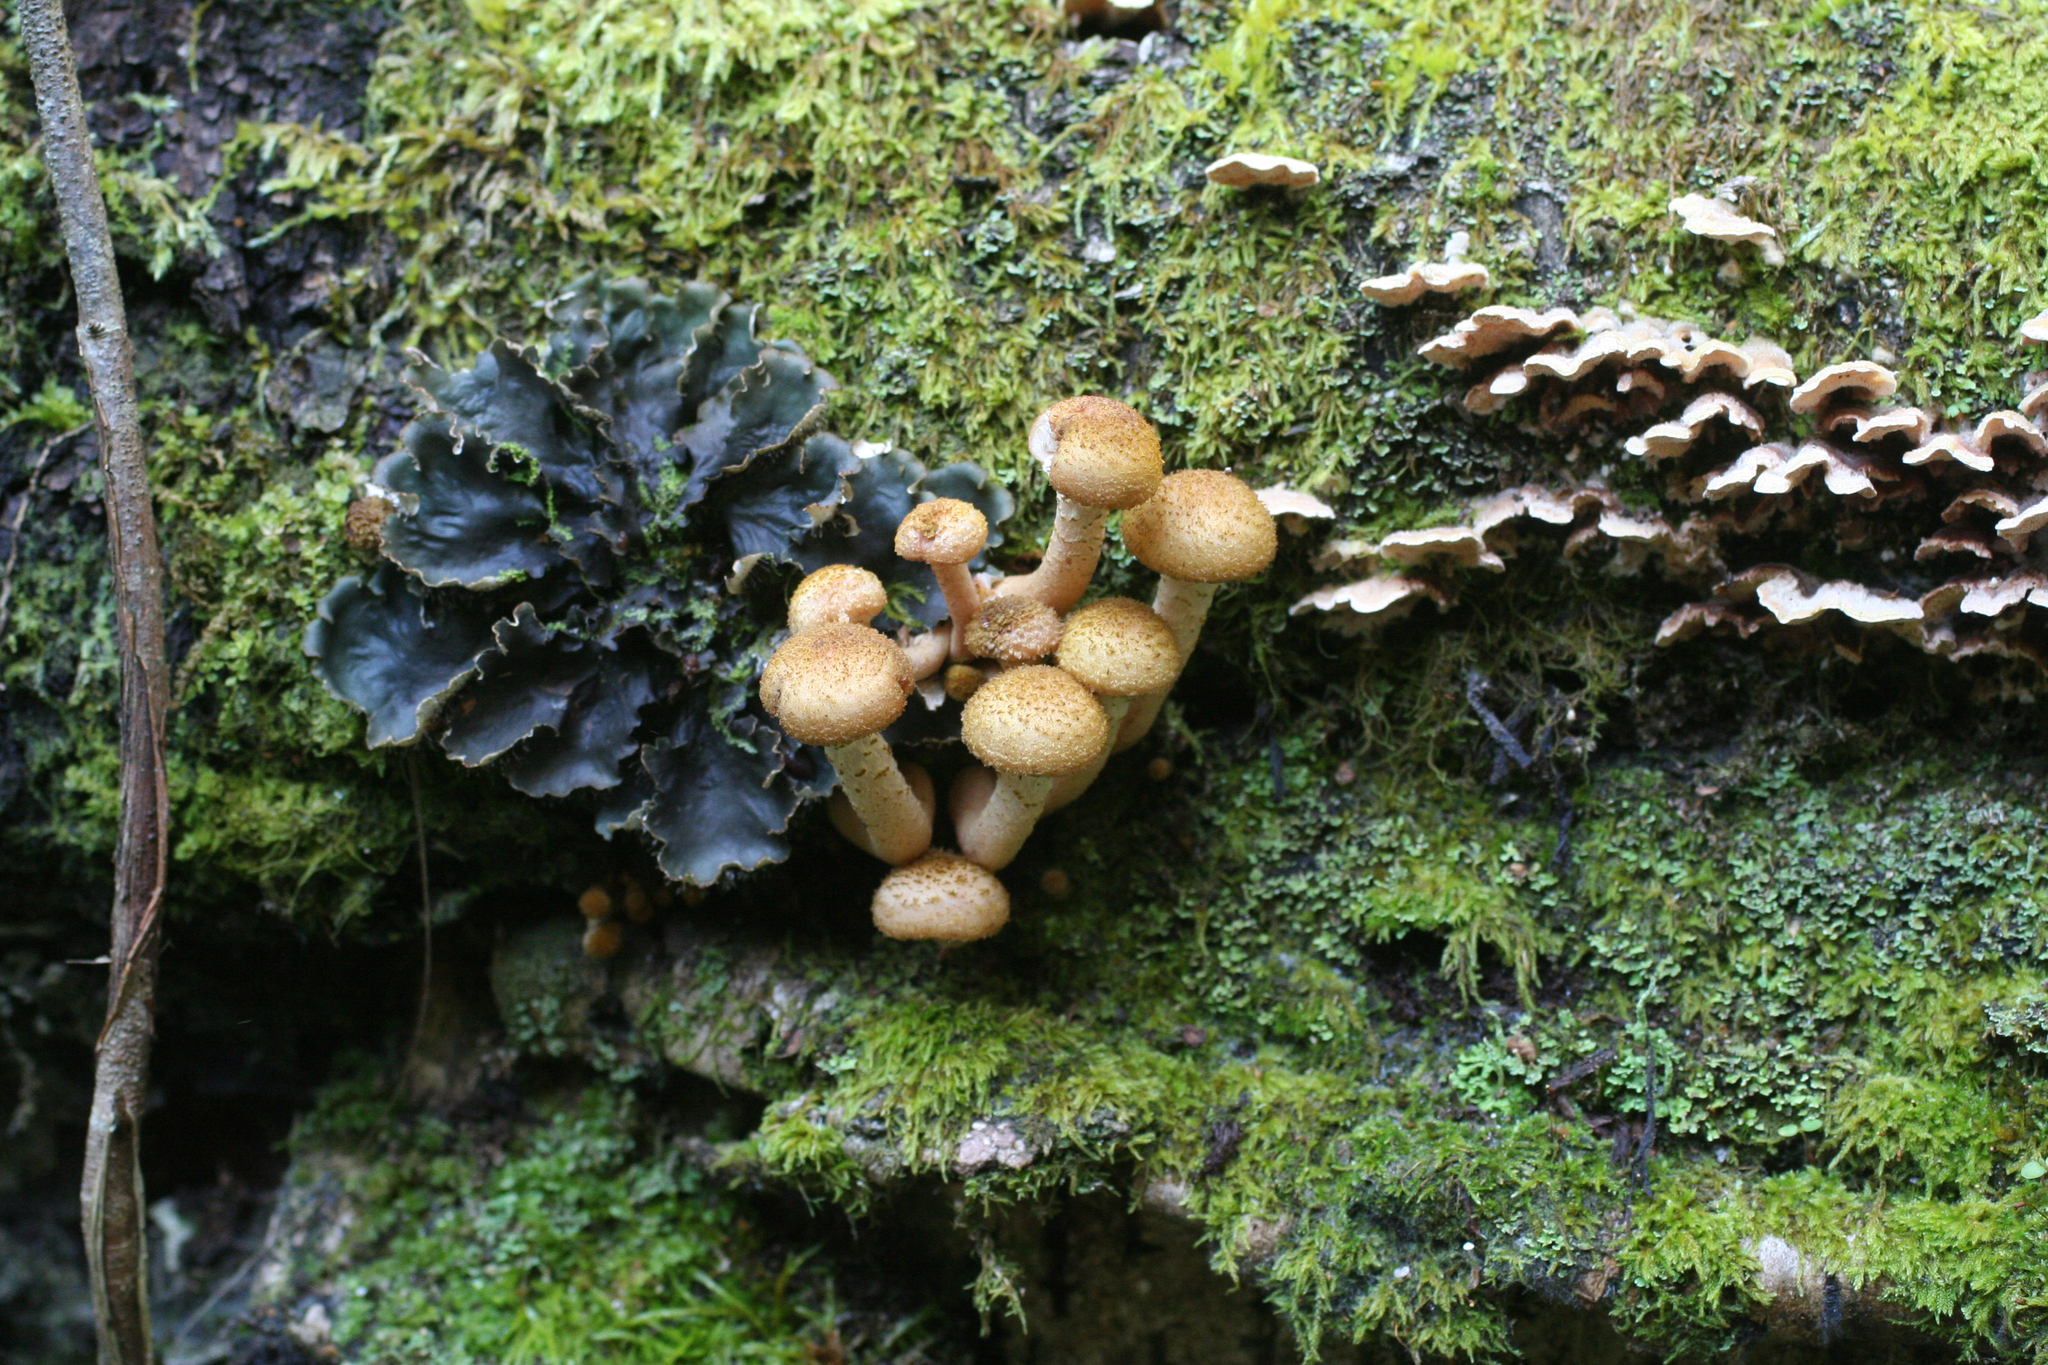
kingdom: Fungi
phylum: Basidiomycota
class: Agaricomycetes
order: Agaricales
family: Physalacriaceae
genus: Armillaria
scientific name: Armillaria borealis
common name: Northern honey fungus
